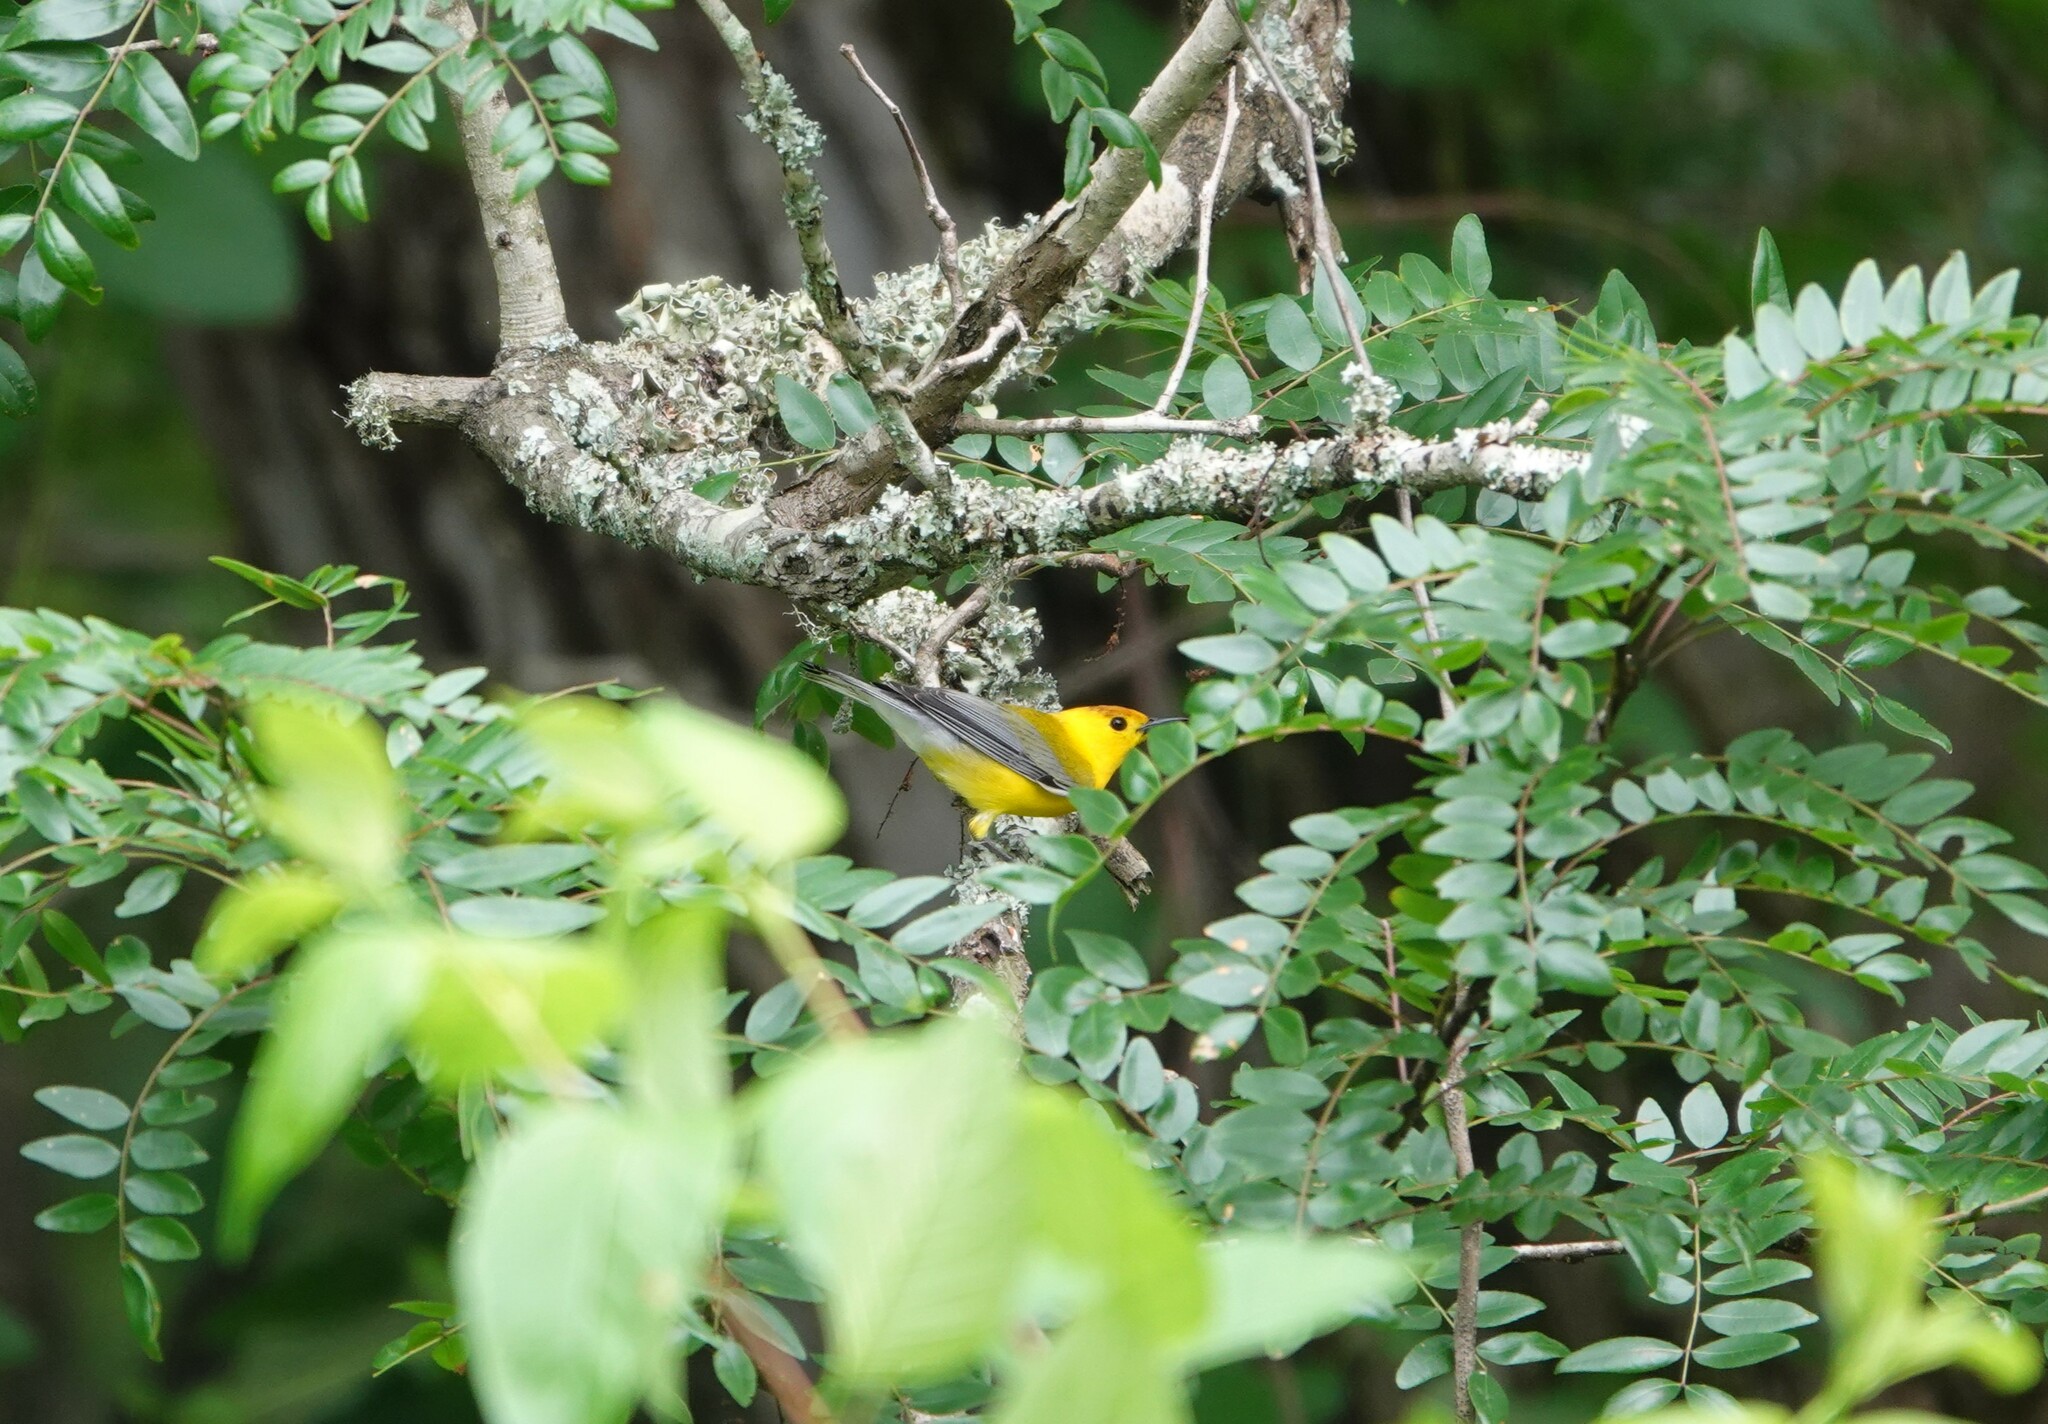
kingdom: Animalia
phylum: Chordata
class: Aves
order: Passeriformes
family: Parulidae
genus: Protonotaria
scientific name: Protonotaria citrea
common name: Prothonotary warbler
